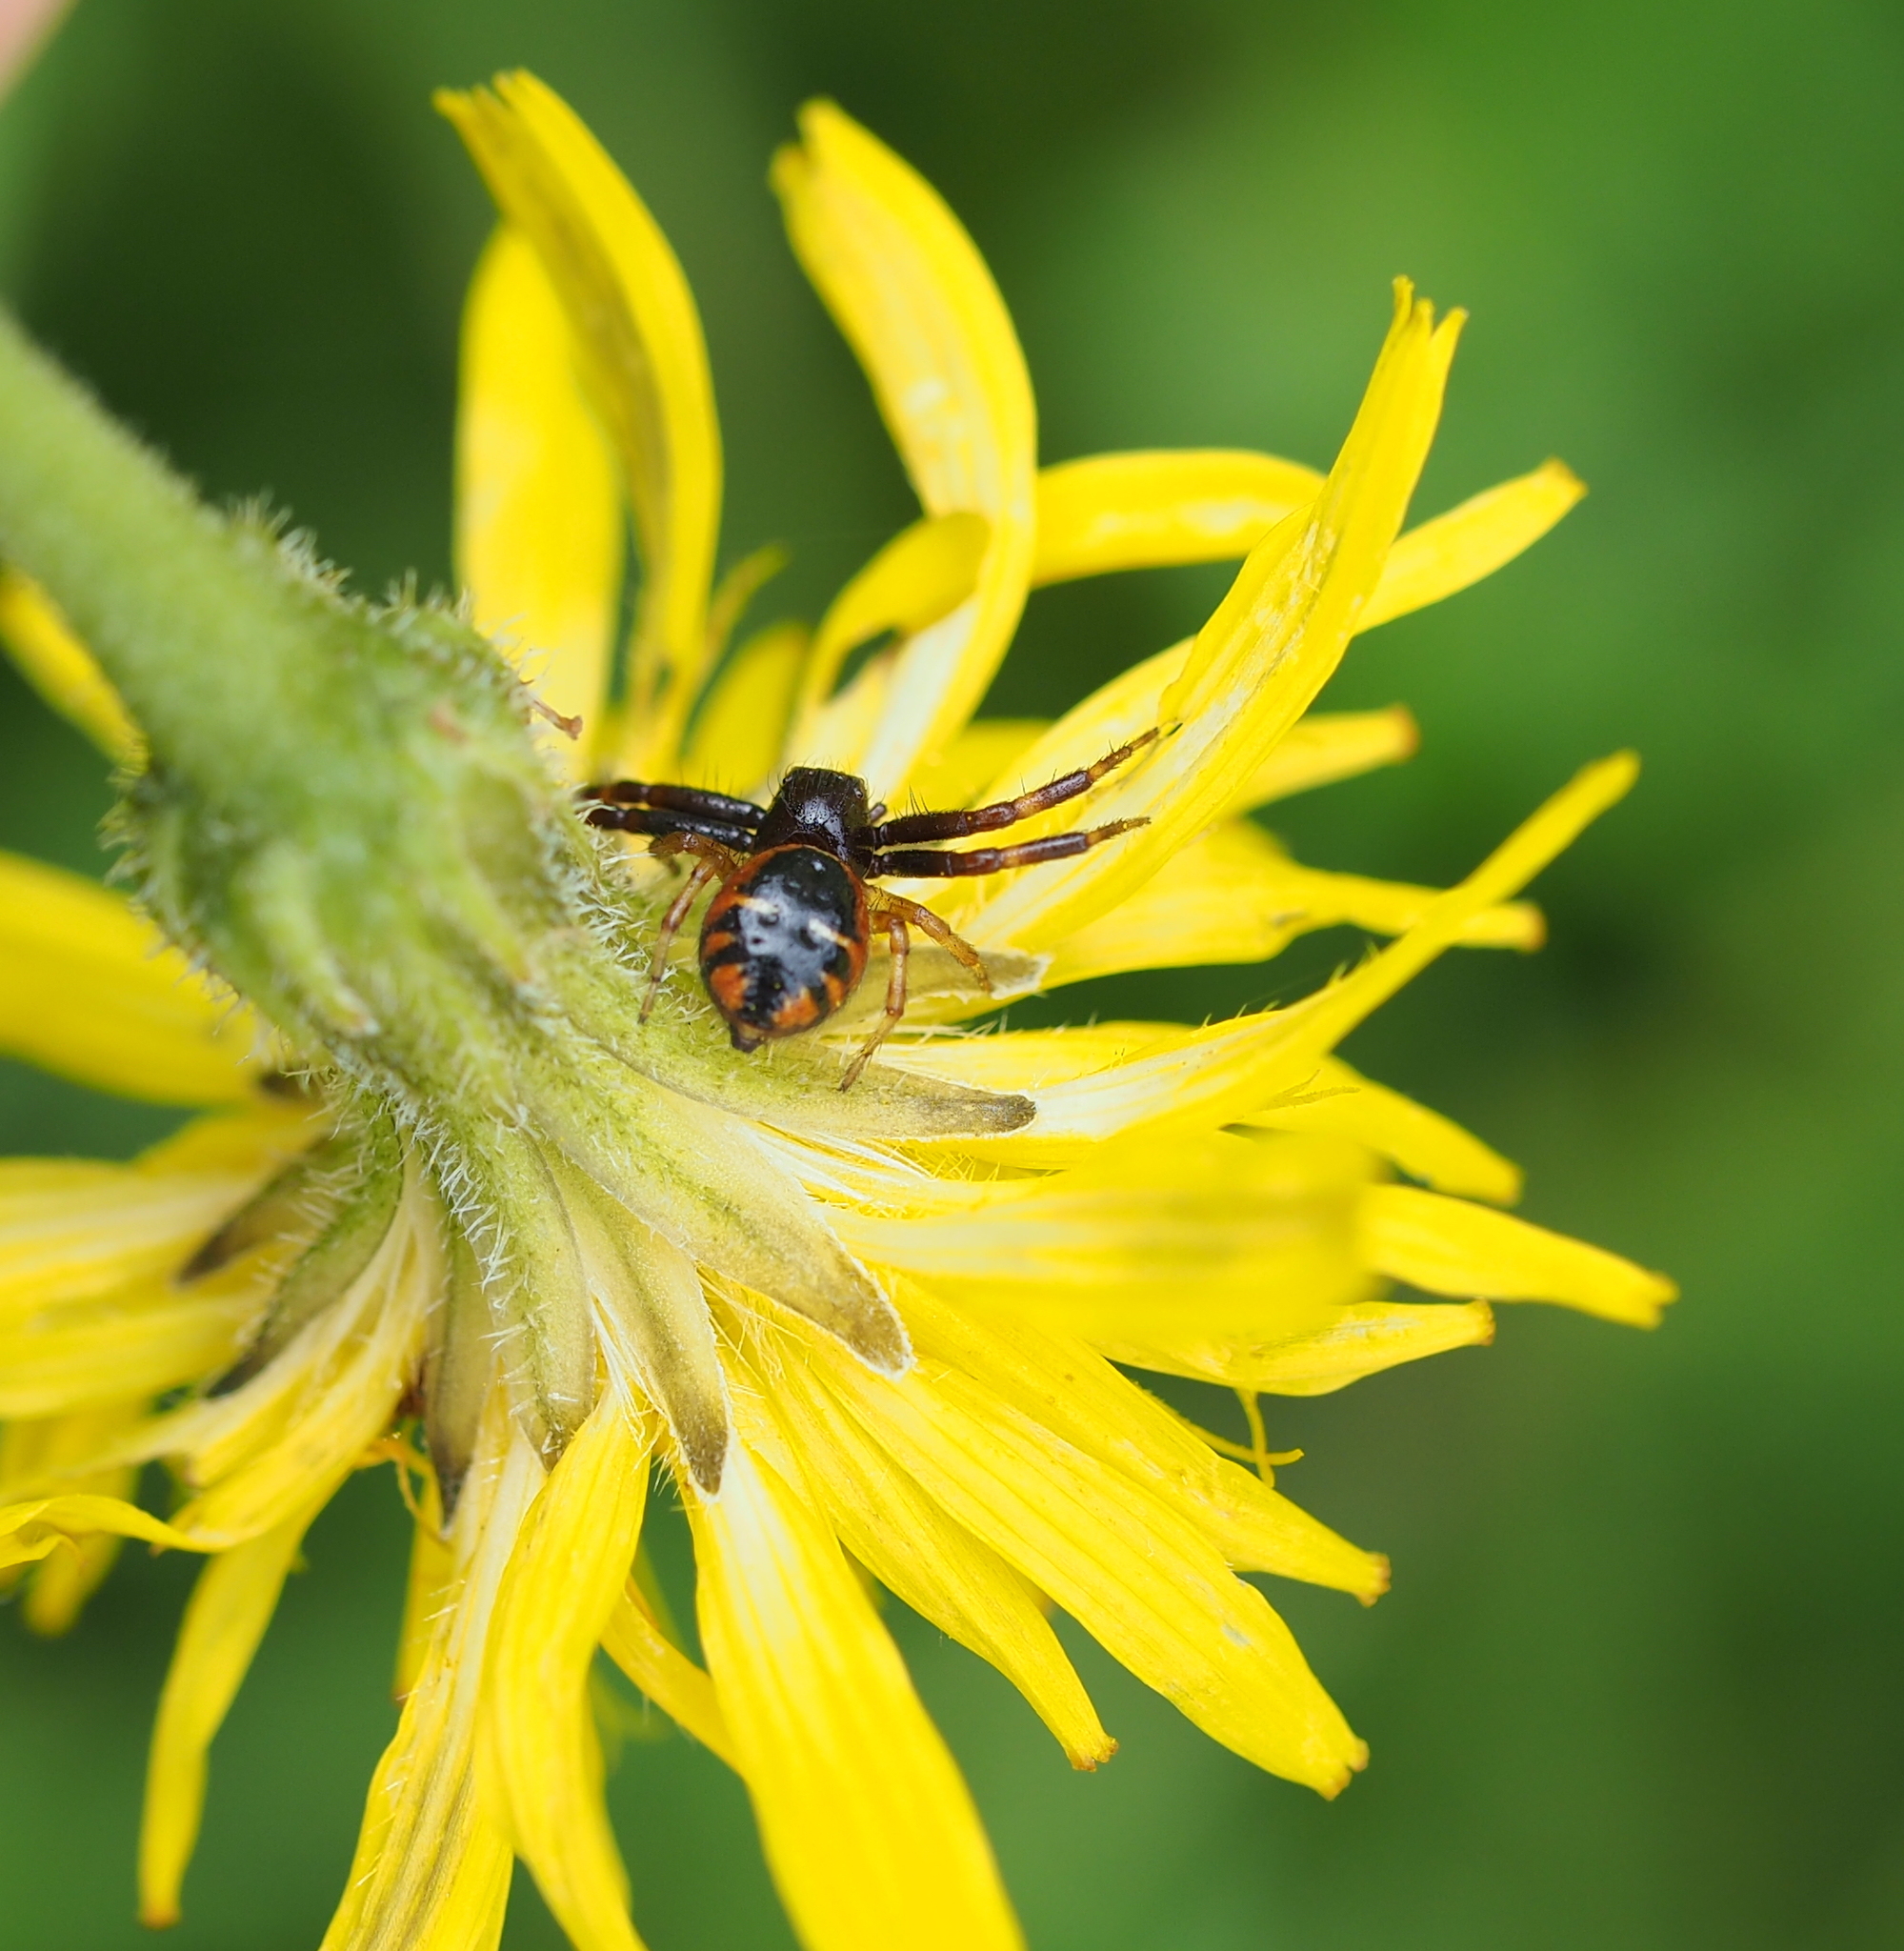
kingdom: Animalia
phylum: Arthropoda
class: Arachnida
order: Araneae
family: Thomisidae
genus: Synema
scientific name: Synema globosum
